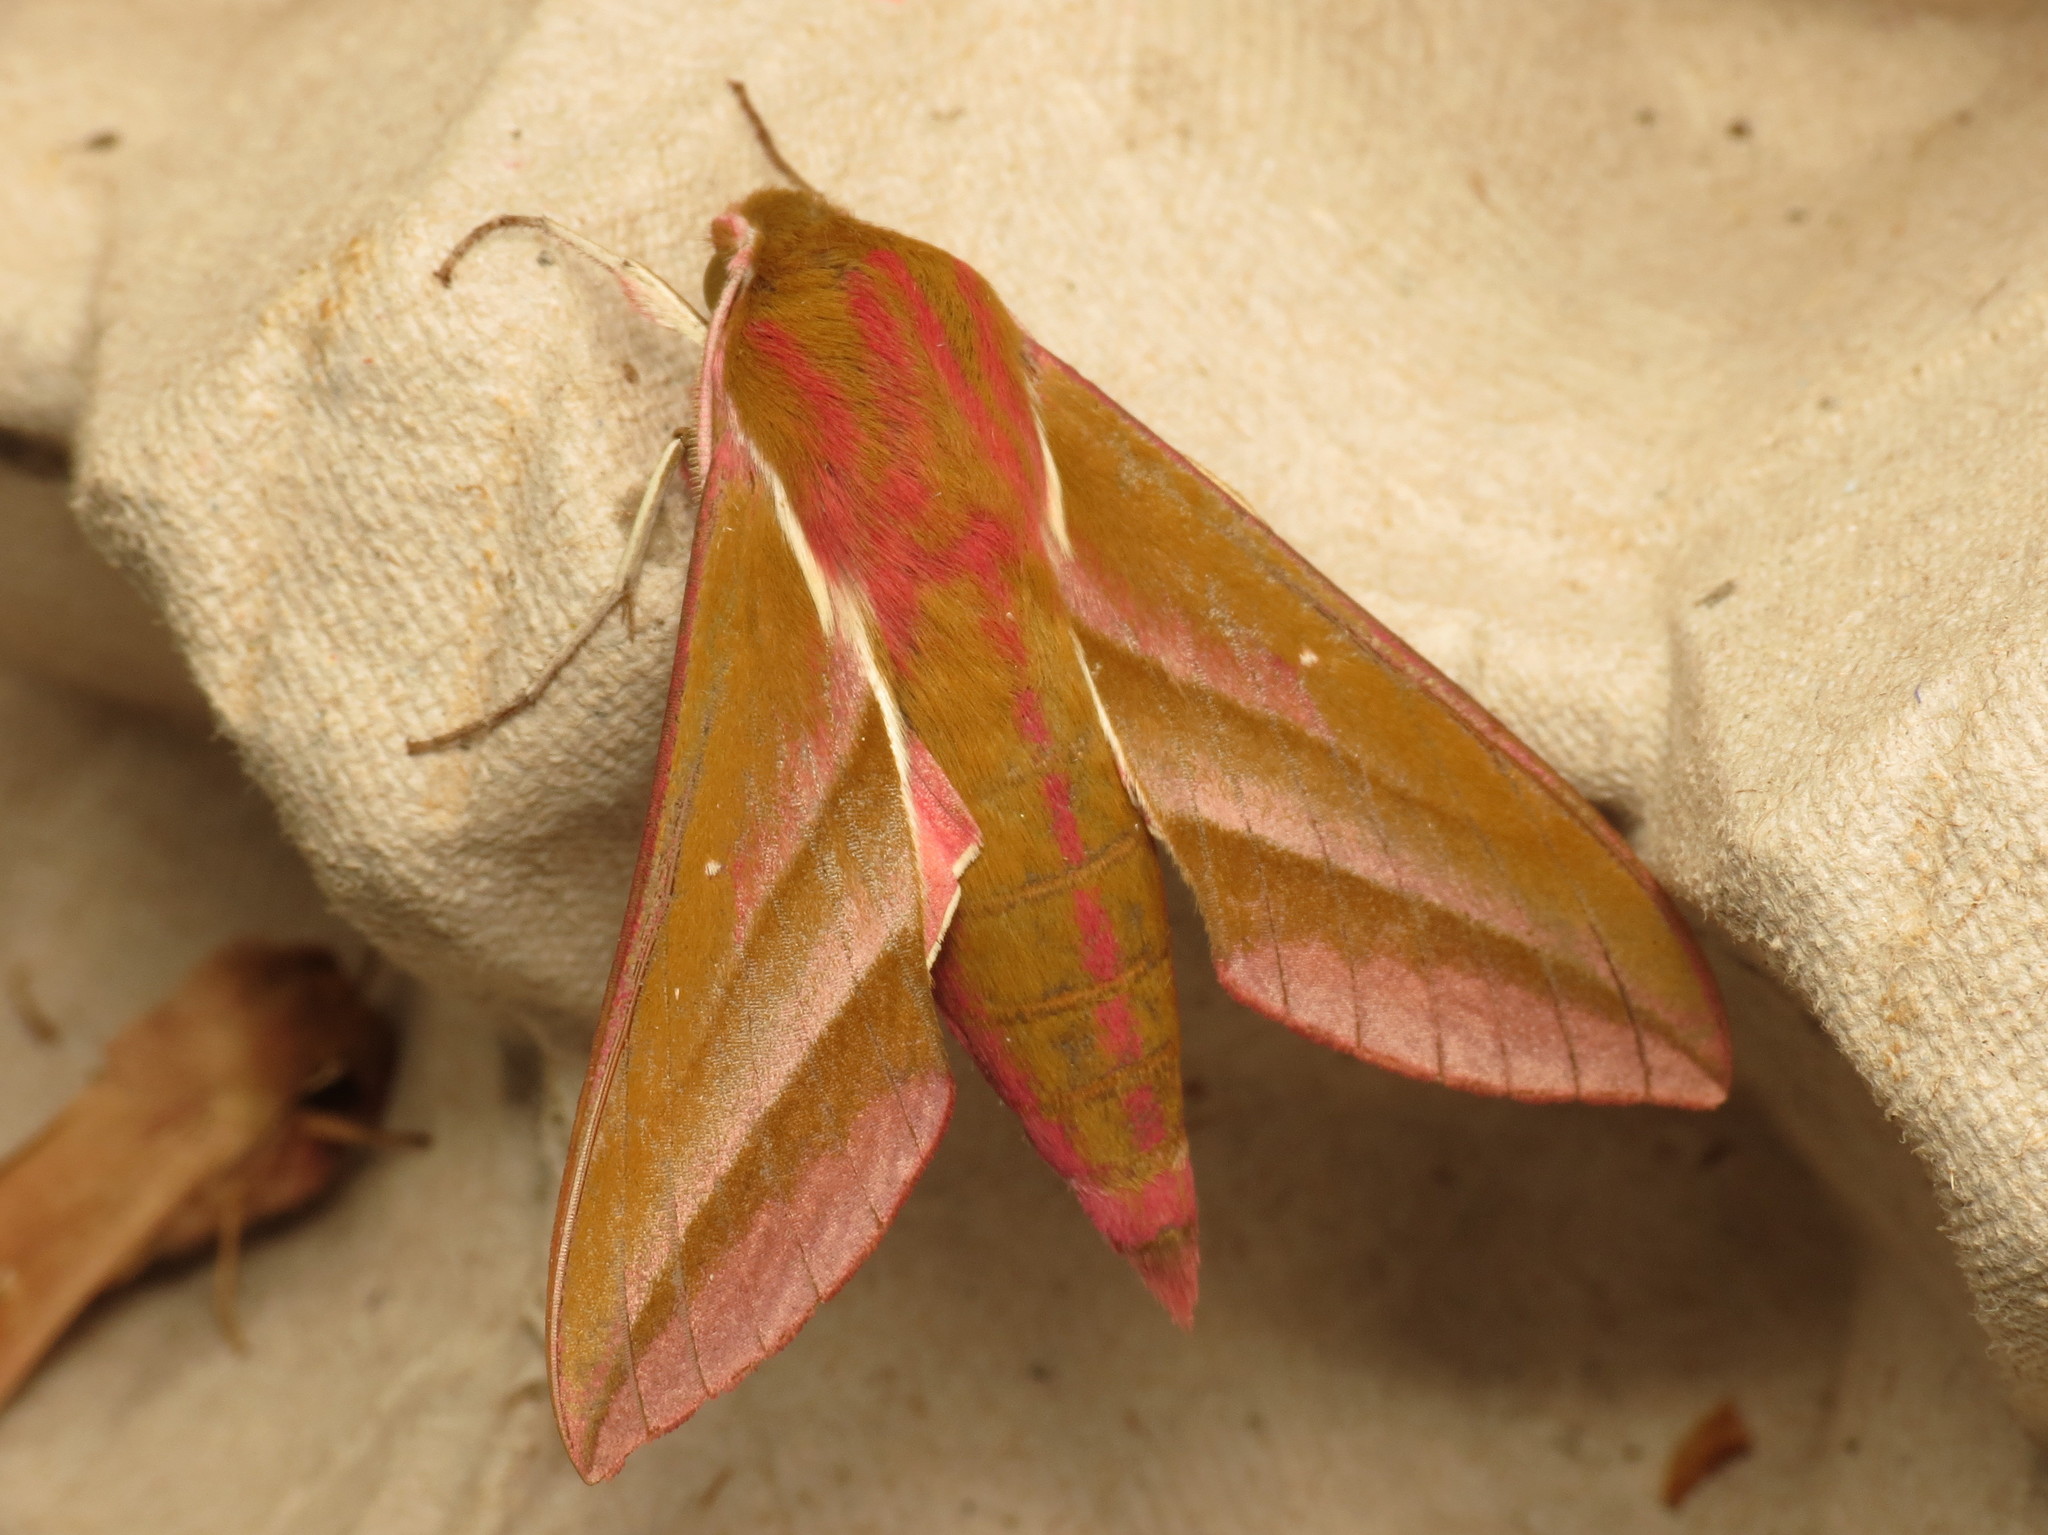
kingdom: Animalia
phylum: Arthropoda
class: Insecta
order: Lepidoptera
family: Sphingidae
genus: Deilephila
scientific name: Deilephila elpenor
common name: Elephant hawk-moth
